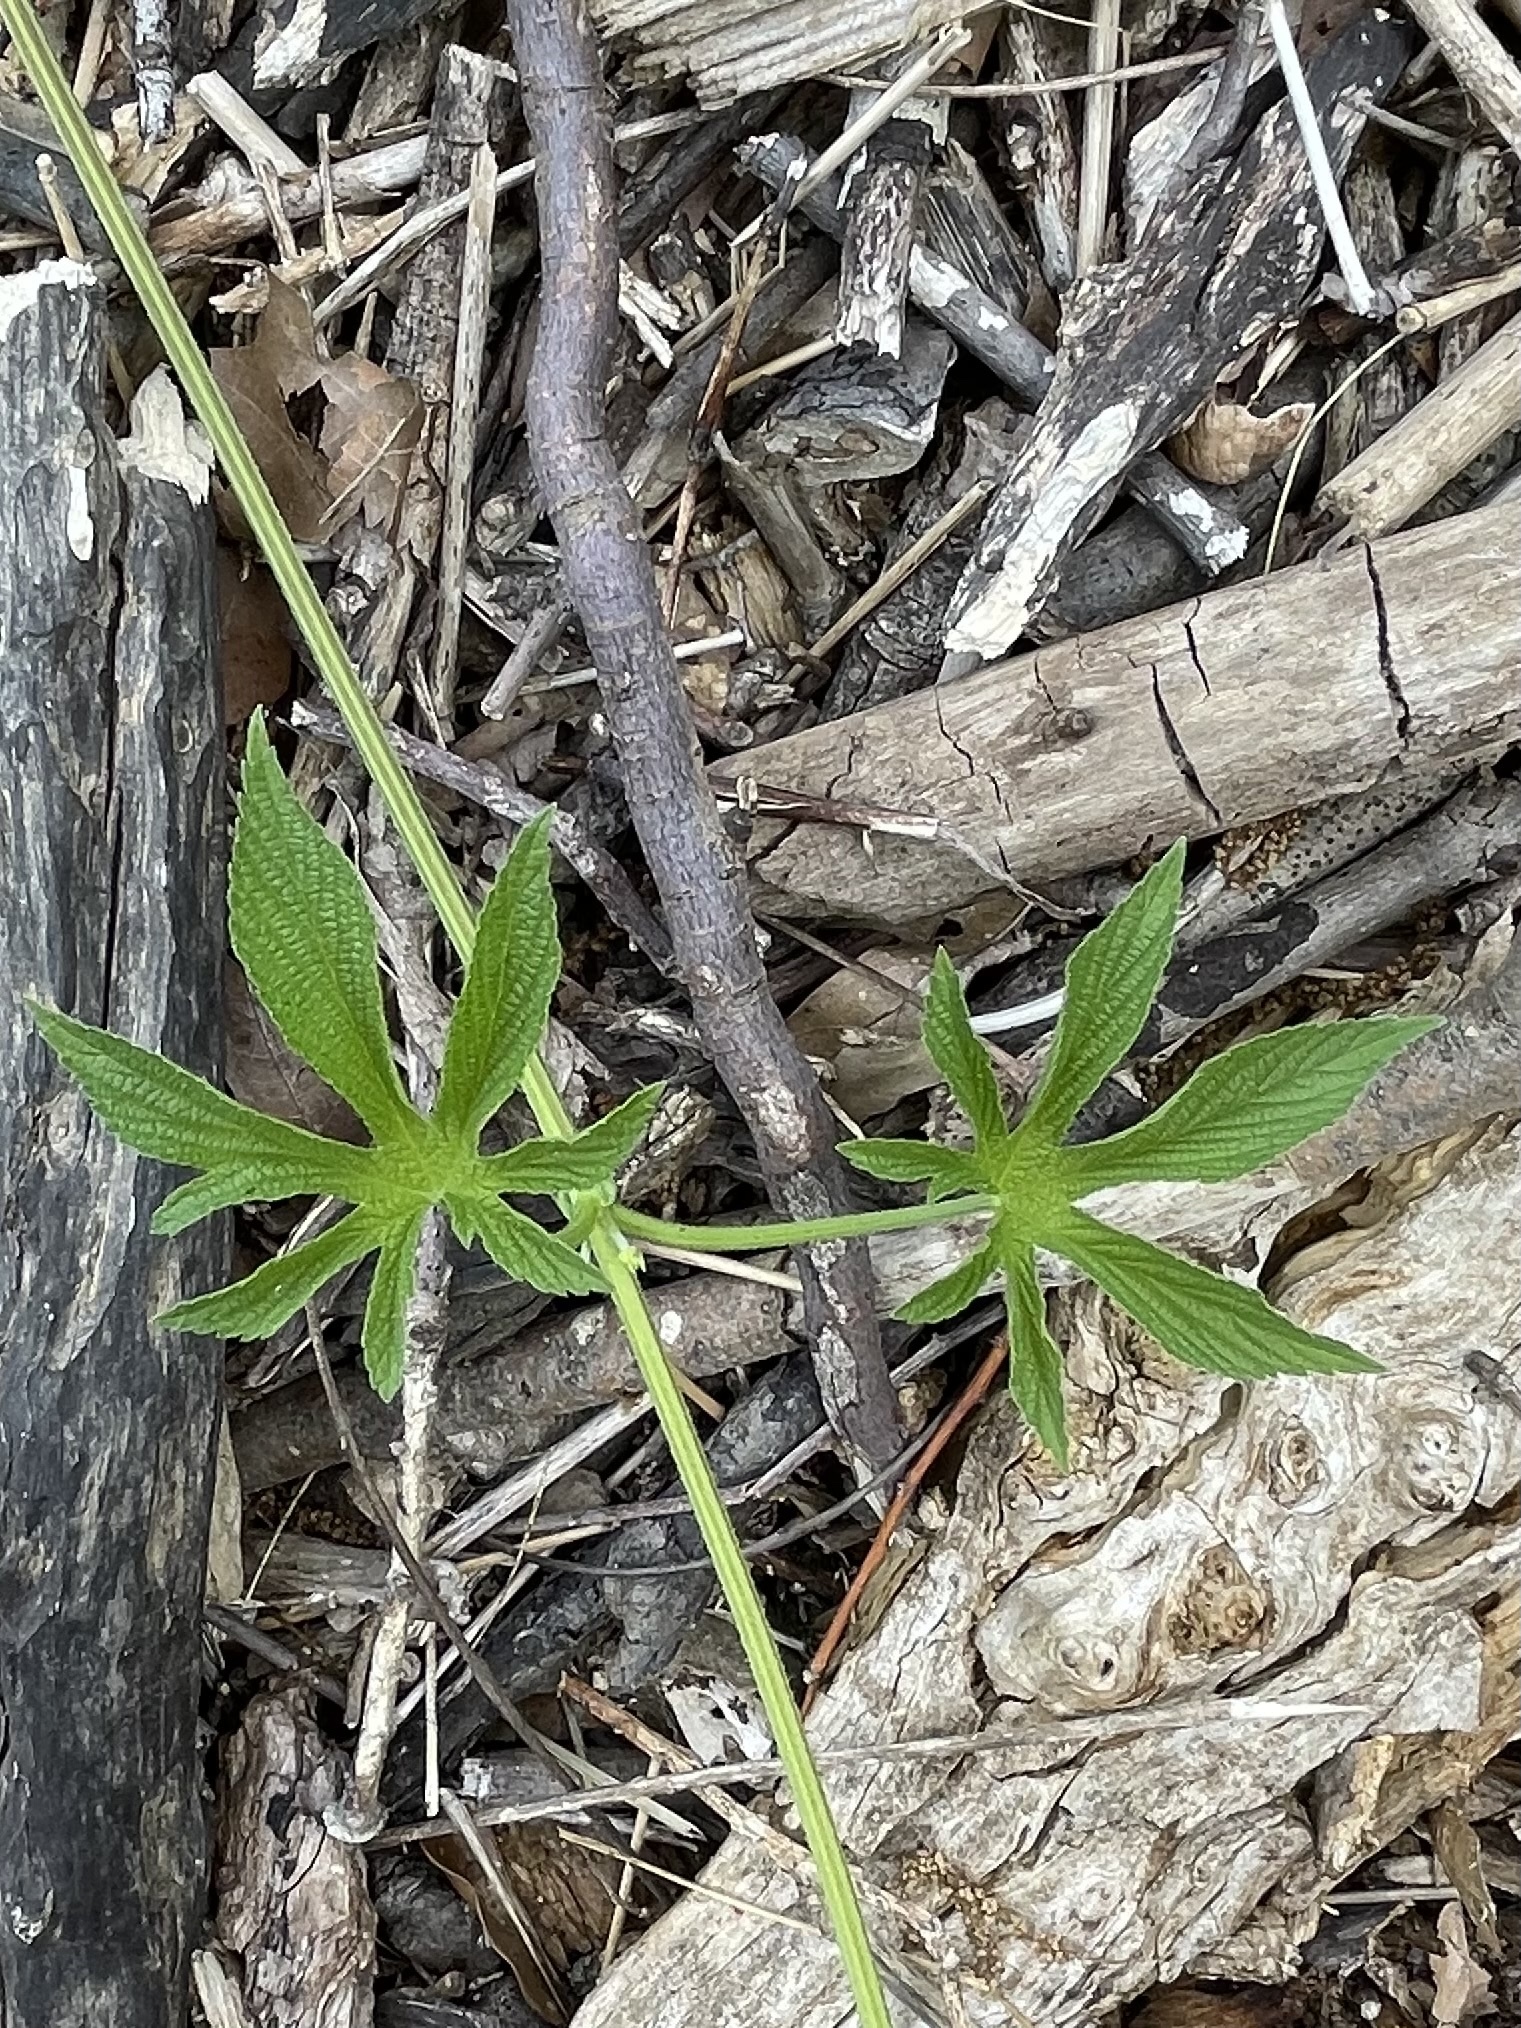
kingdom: Plantae
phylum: Tracheophyta
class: Magnoliopsida
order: Rosales
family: Cannabaceae
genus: Humulus
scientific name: Humulus scandens
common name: Japanese hop
